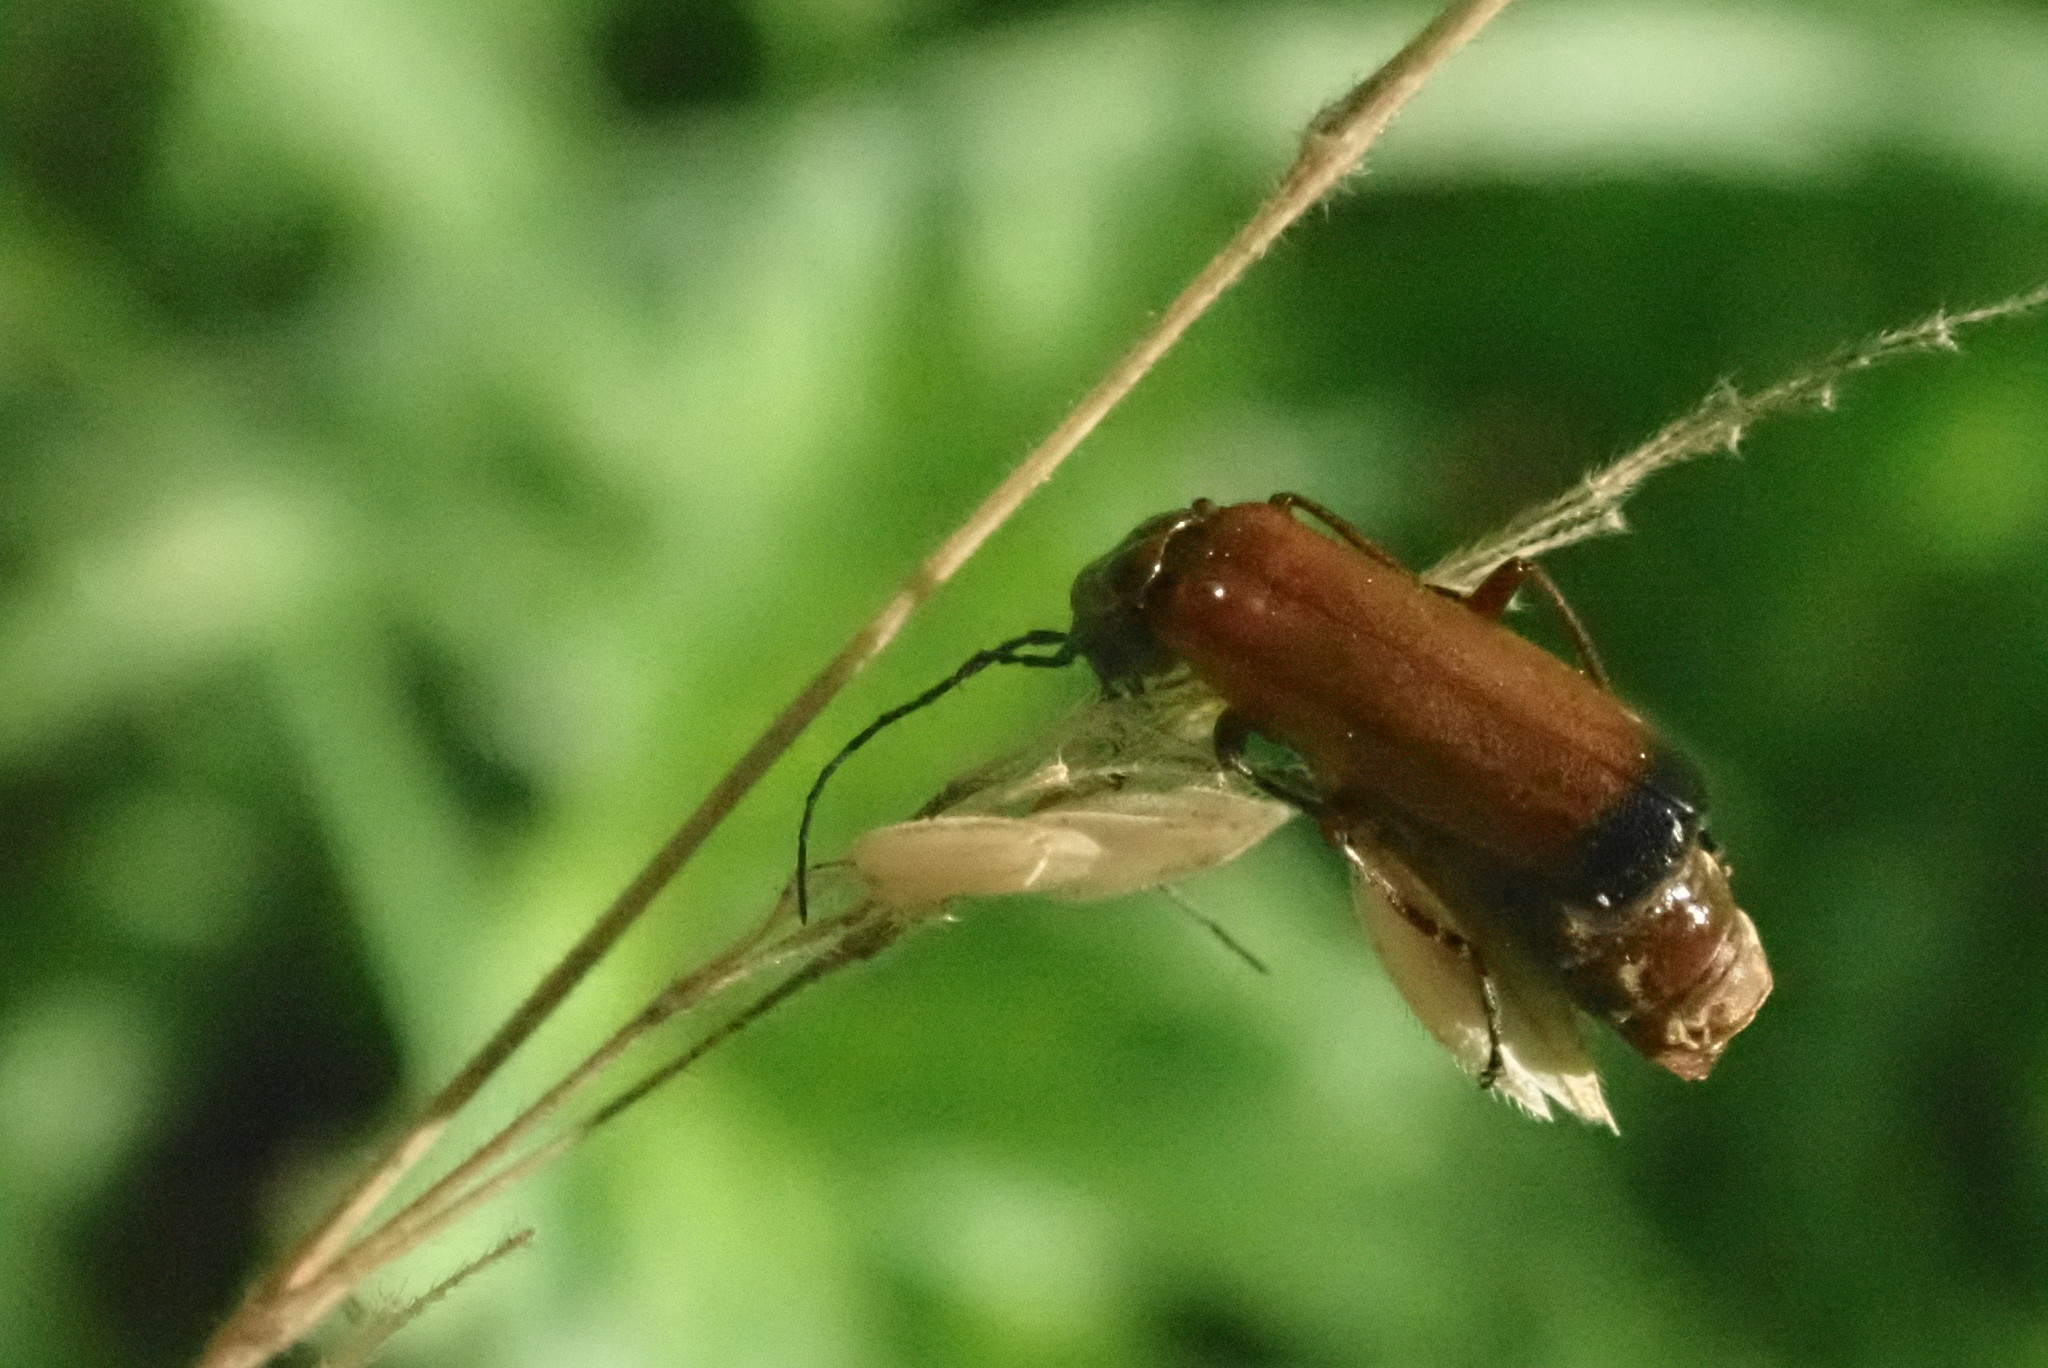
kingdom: Animalia
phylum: Arthropoda
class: Insecta
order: Coleoptera
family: Cantharidae
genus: Rhagonycha
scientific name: Rhagonycha fulva
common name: Common red soldier beetle
